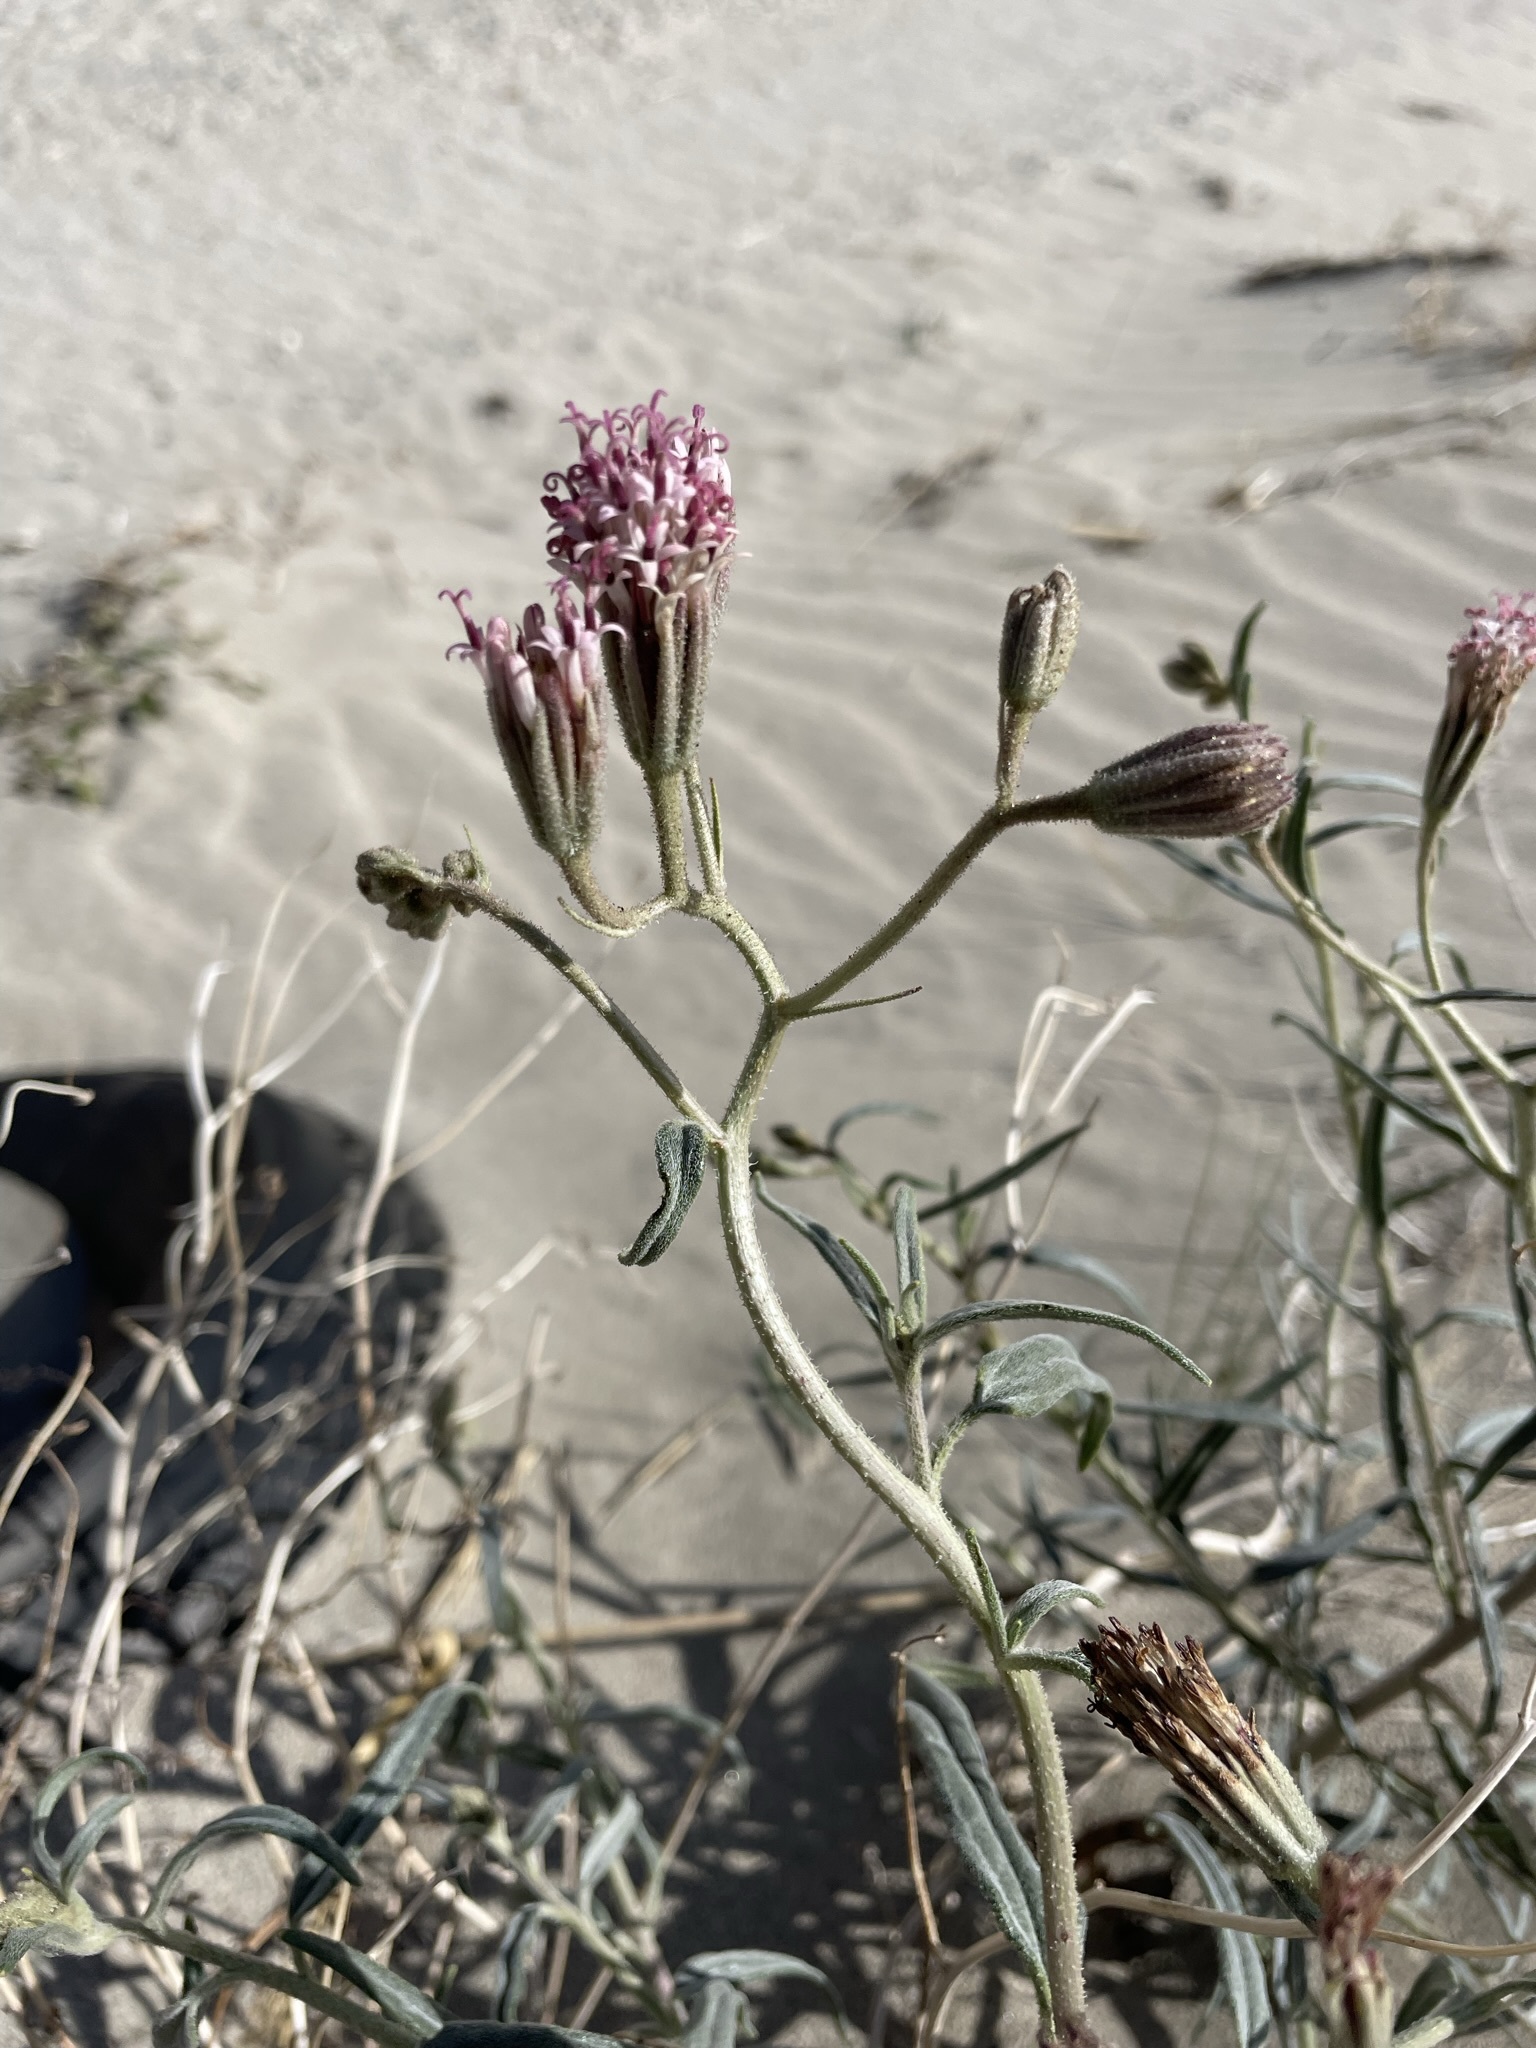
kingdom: Plantae
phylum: Tracheophyta
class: Magnoliopsida
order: Asterales
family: Asteraceae
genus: Palafoxia
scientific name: Palafoxia arida
